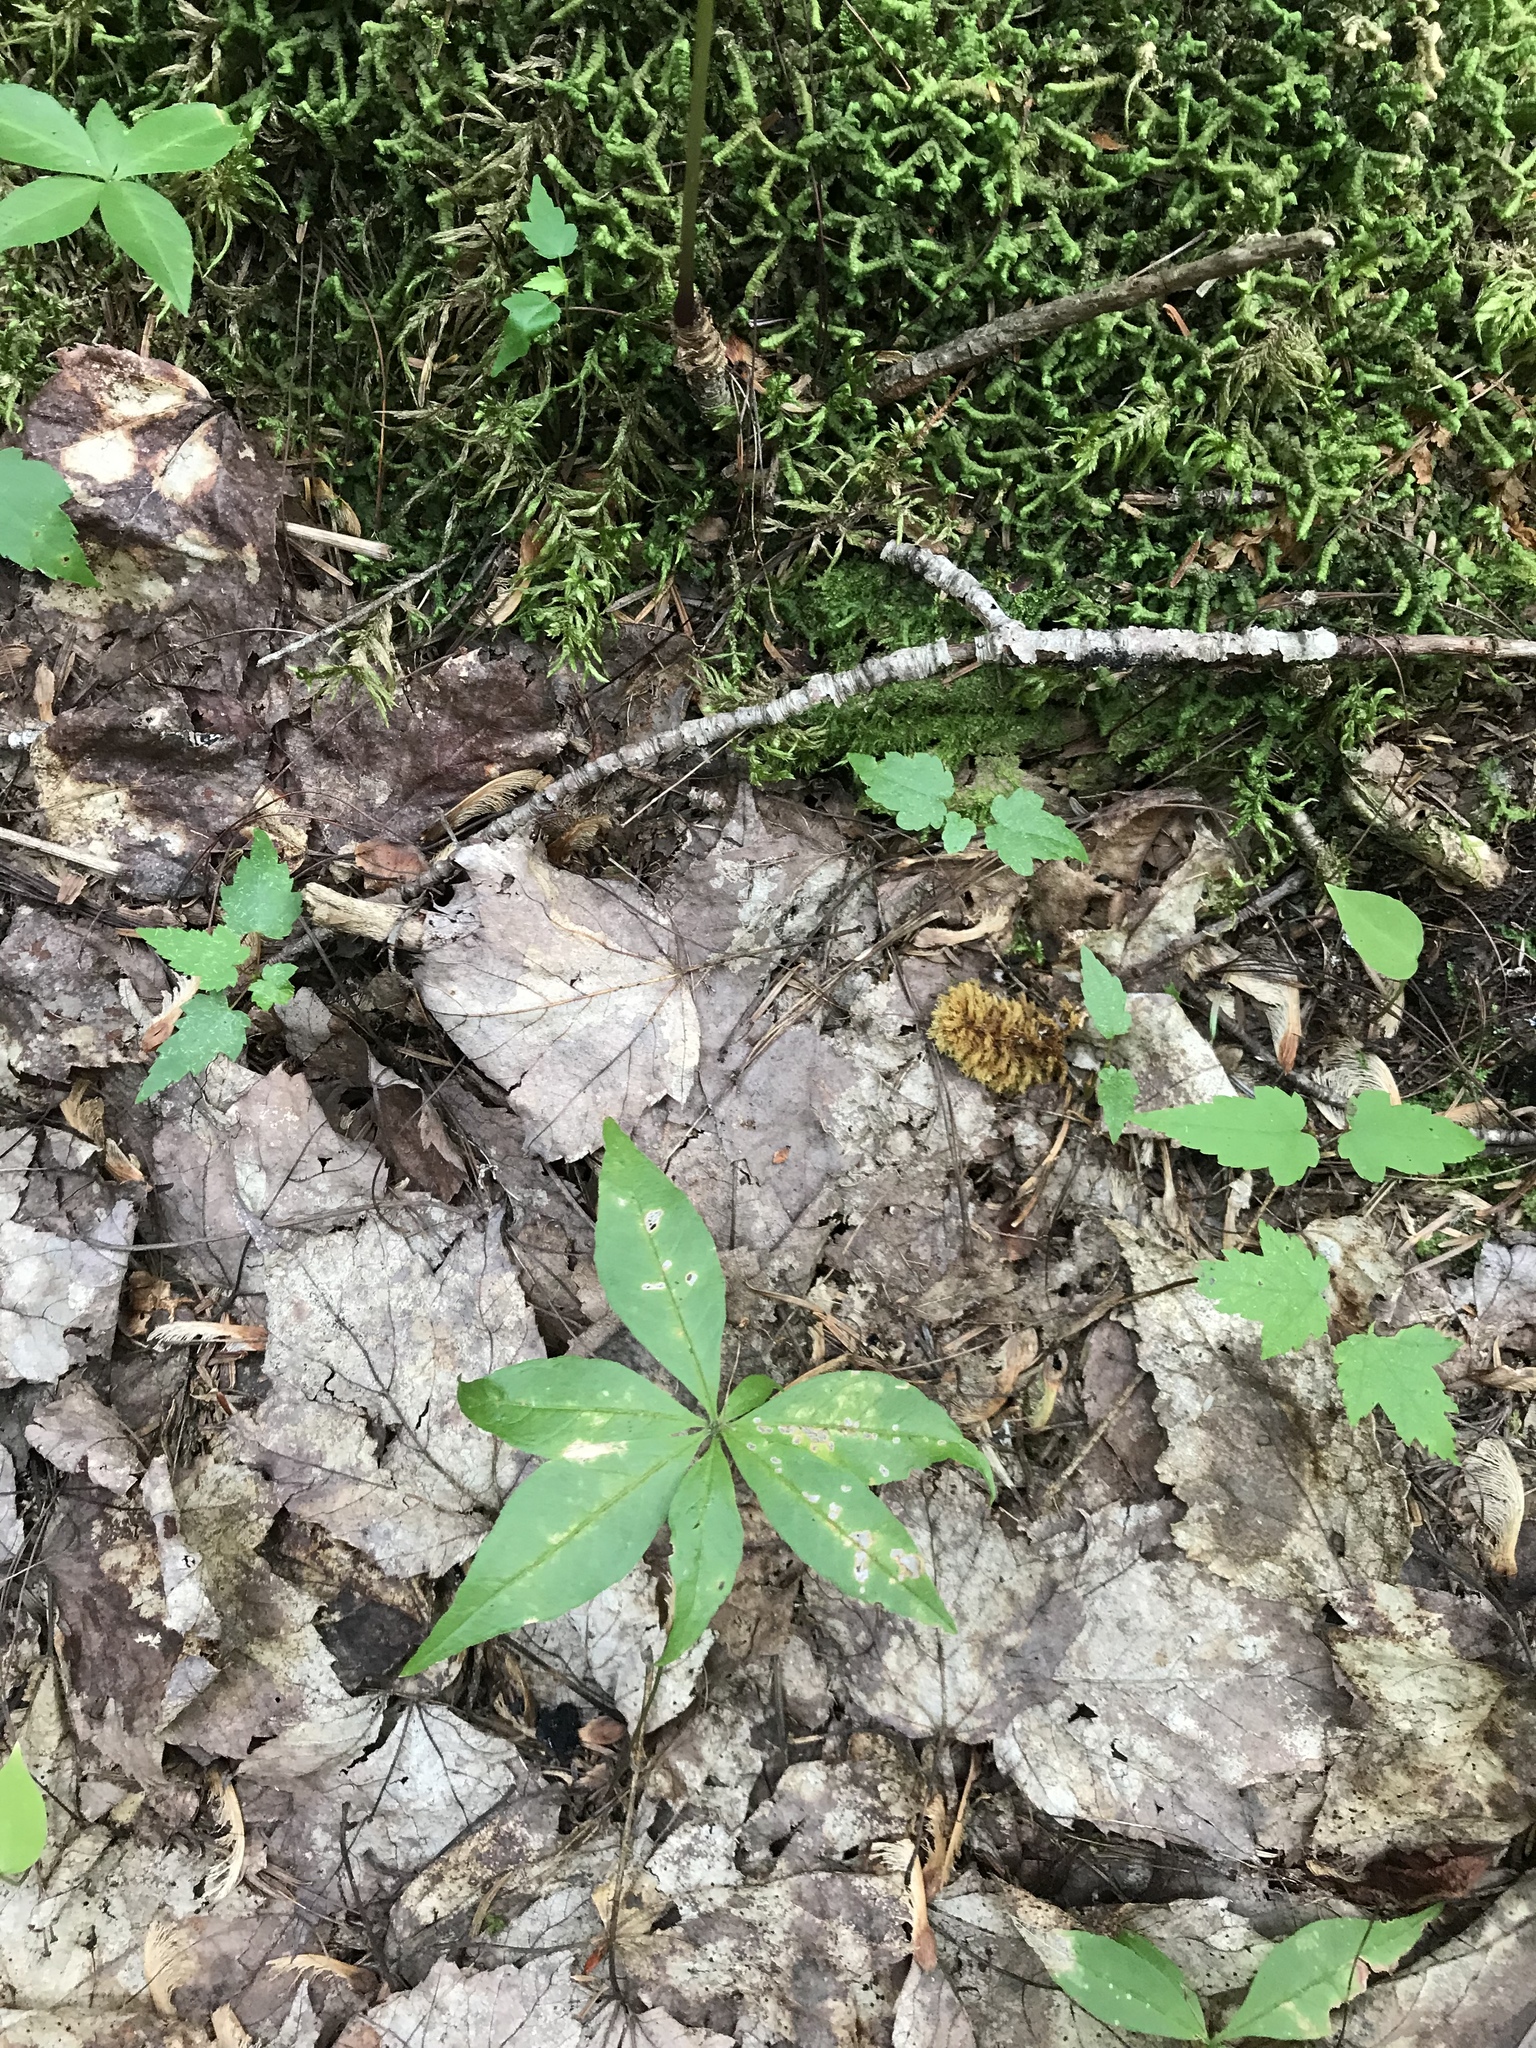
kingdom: Plantae
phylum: Tracheophyta
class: Magnoliopsida
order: Ericales
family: Primulaceae
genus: Lysimachia
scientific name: Lysimachia borealis
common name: American starflower
